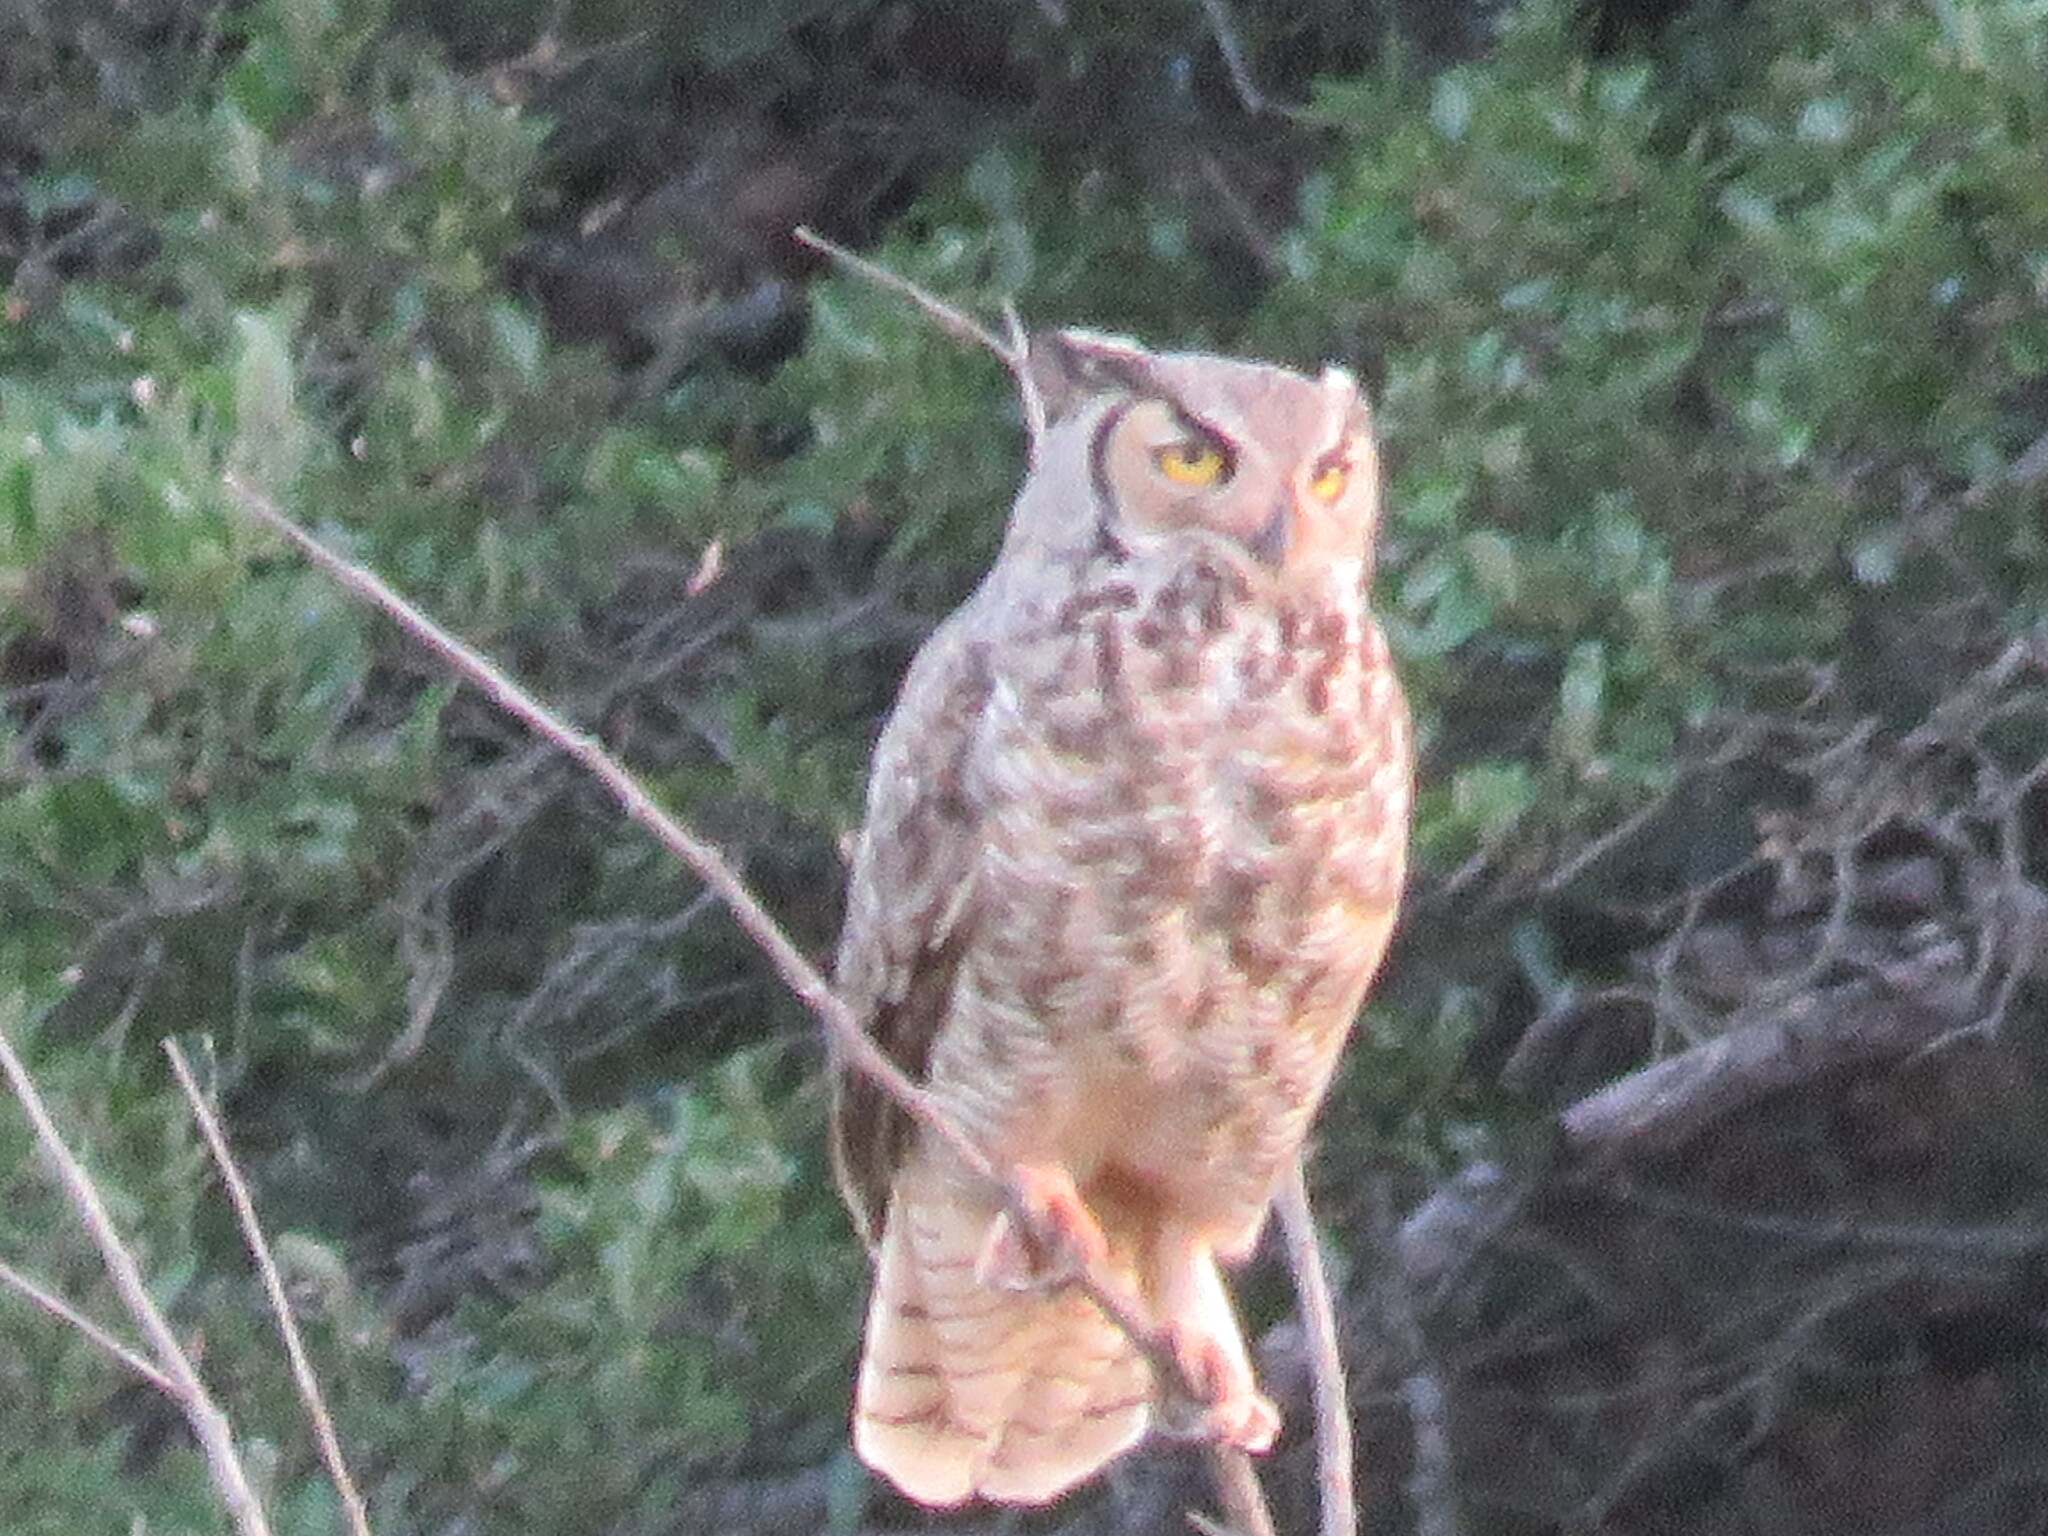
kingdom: Animalia
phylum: Chordata
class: Aves
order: Strigiformes
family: Strigidae
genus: Bubo
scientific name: Bubo virginianus
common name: Great horned owl
